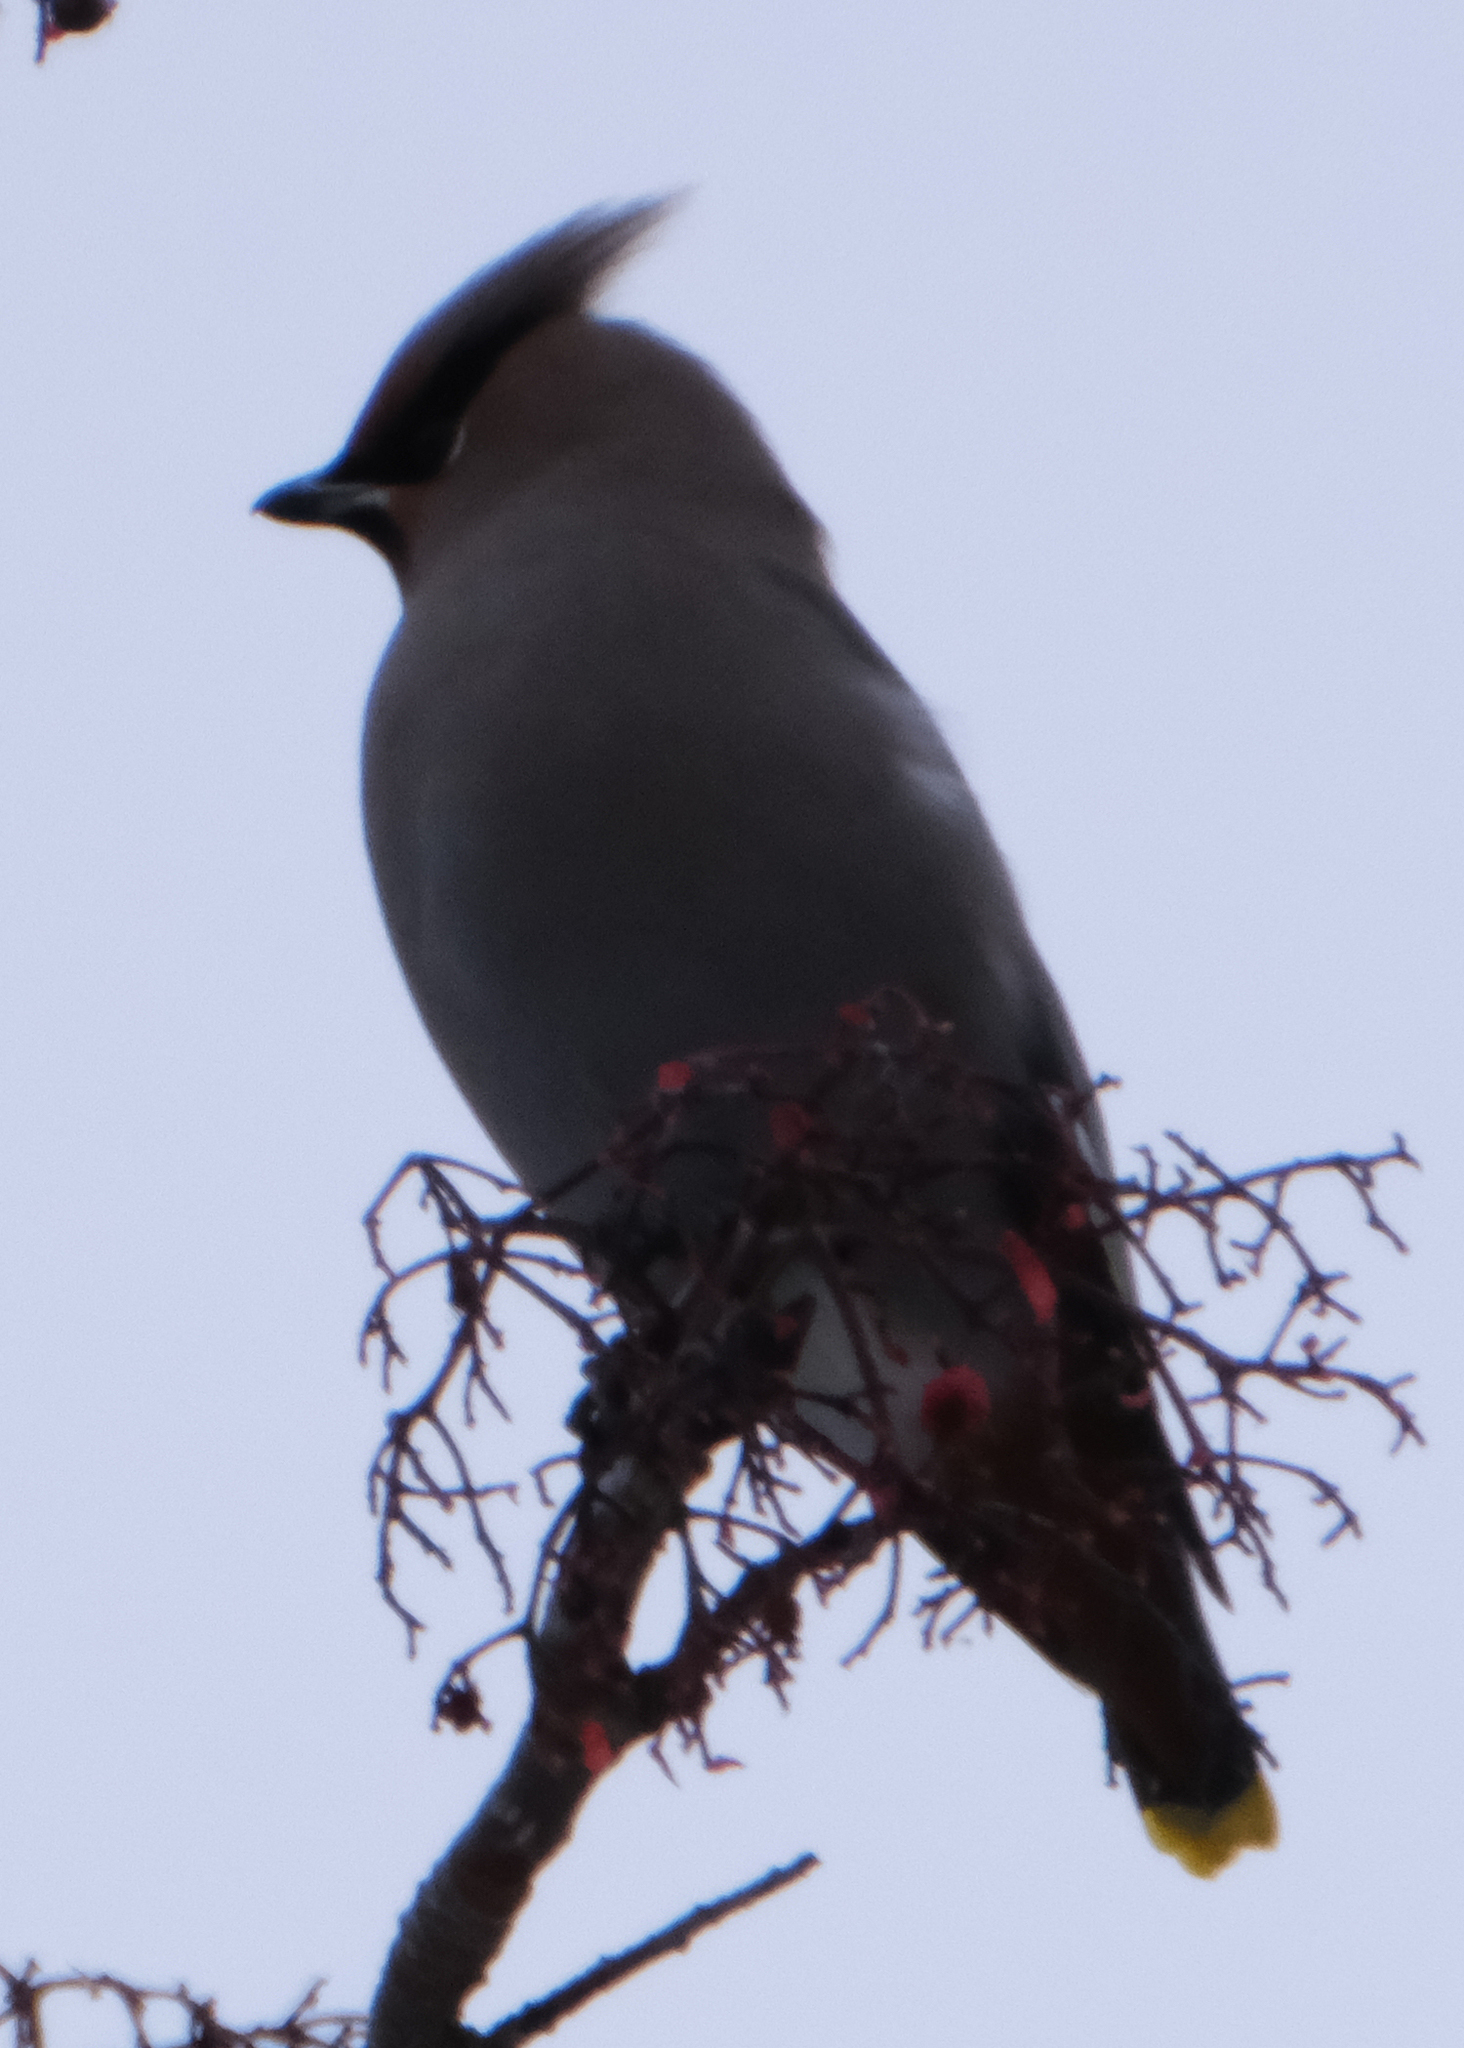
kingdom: Animalia
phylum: Chordata
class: Aves
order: Passeriformes
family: Bombycillidae
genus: Bombycilla
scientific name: Bombycilla garrulus
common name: Bohemian waxwing
